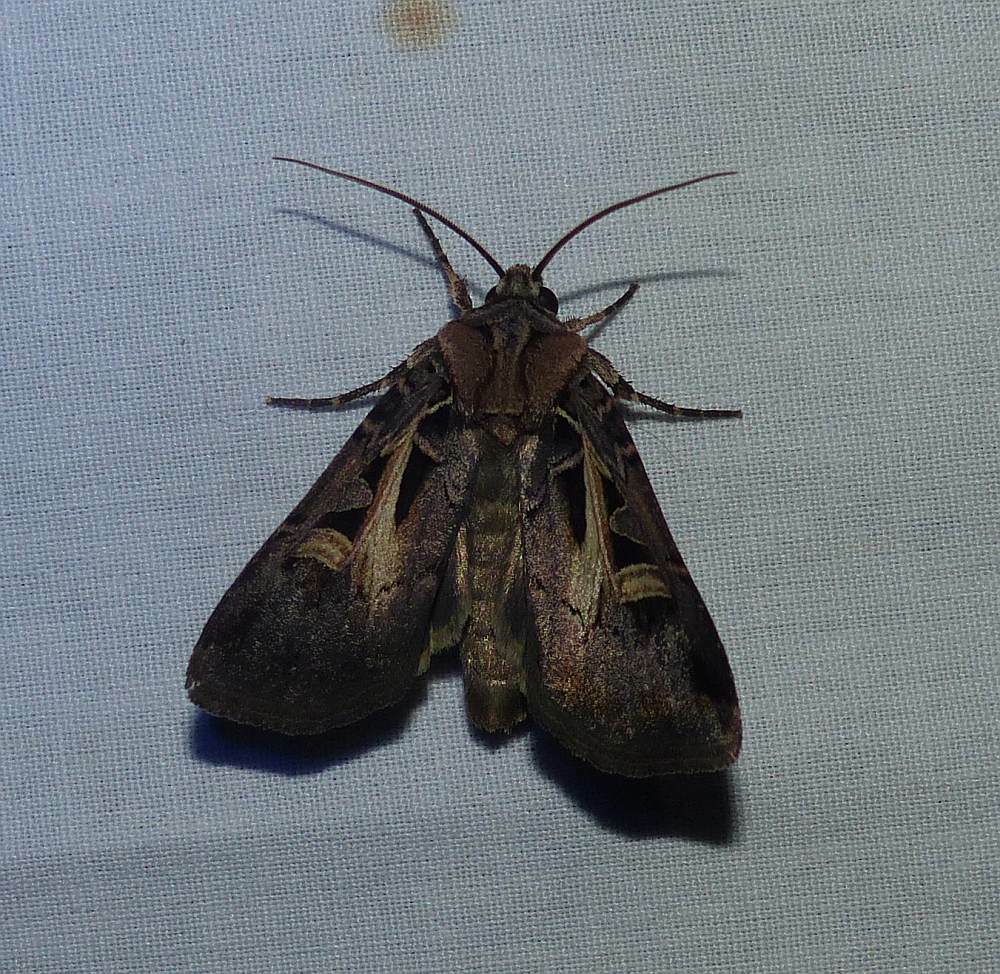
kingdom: Animalia
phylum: Arthropoda
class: Insecta
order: Lepidoptera
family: Noctuidae
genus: Feltia
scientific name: Feltia herilis
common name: Master's dart
